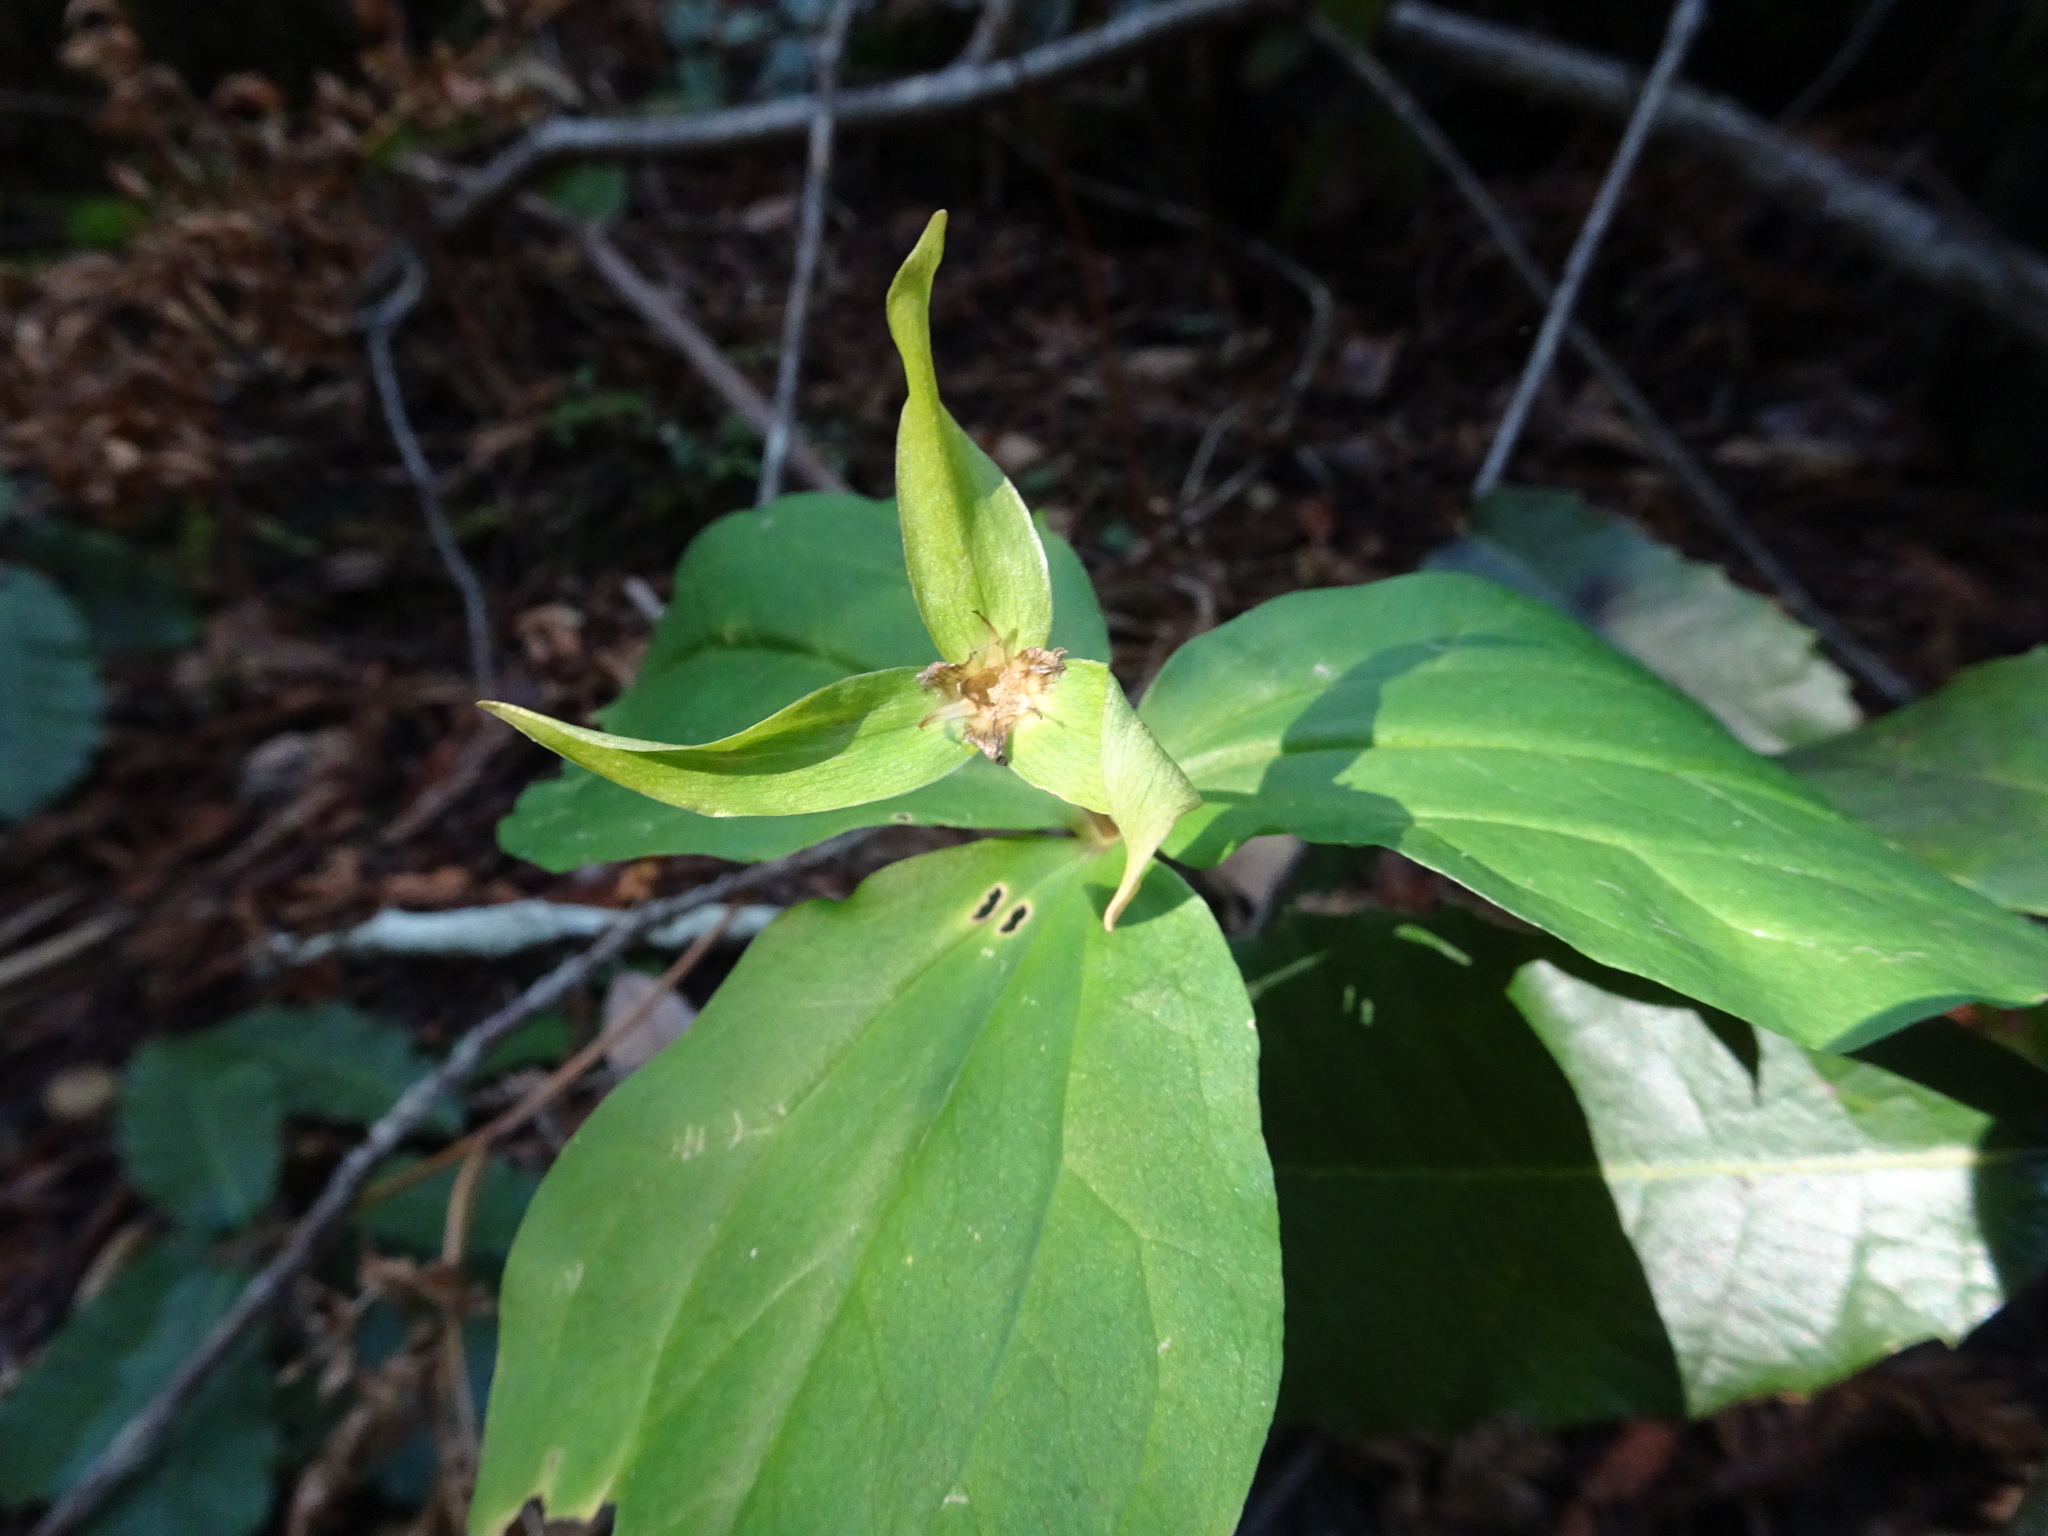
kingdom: Plantae
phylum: Tracheophyta
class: Liliopsida
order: Liliales
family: Melanthiaceae
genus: Trillium
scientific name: Trillium ovatum
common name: Pacific trillium
